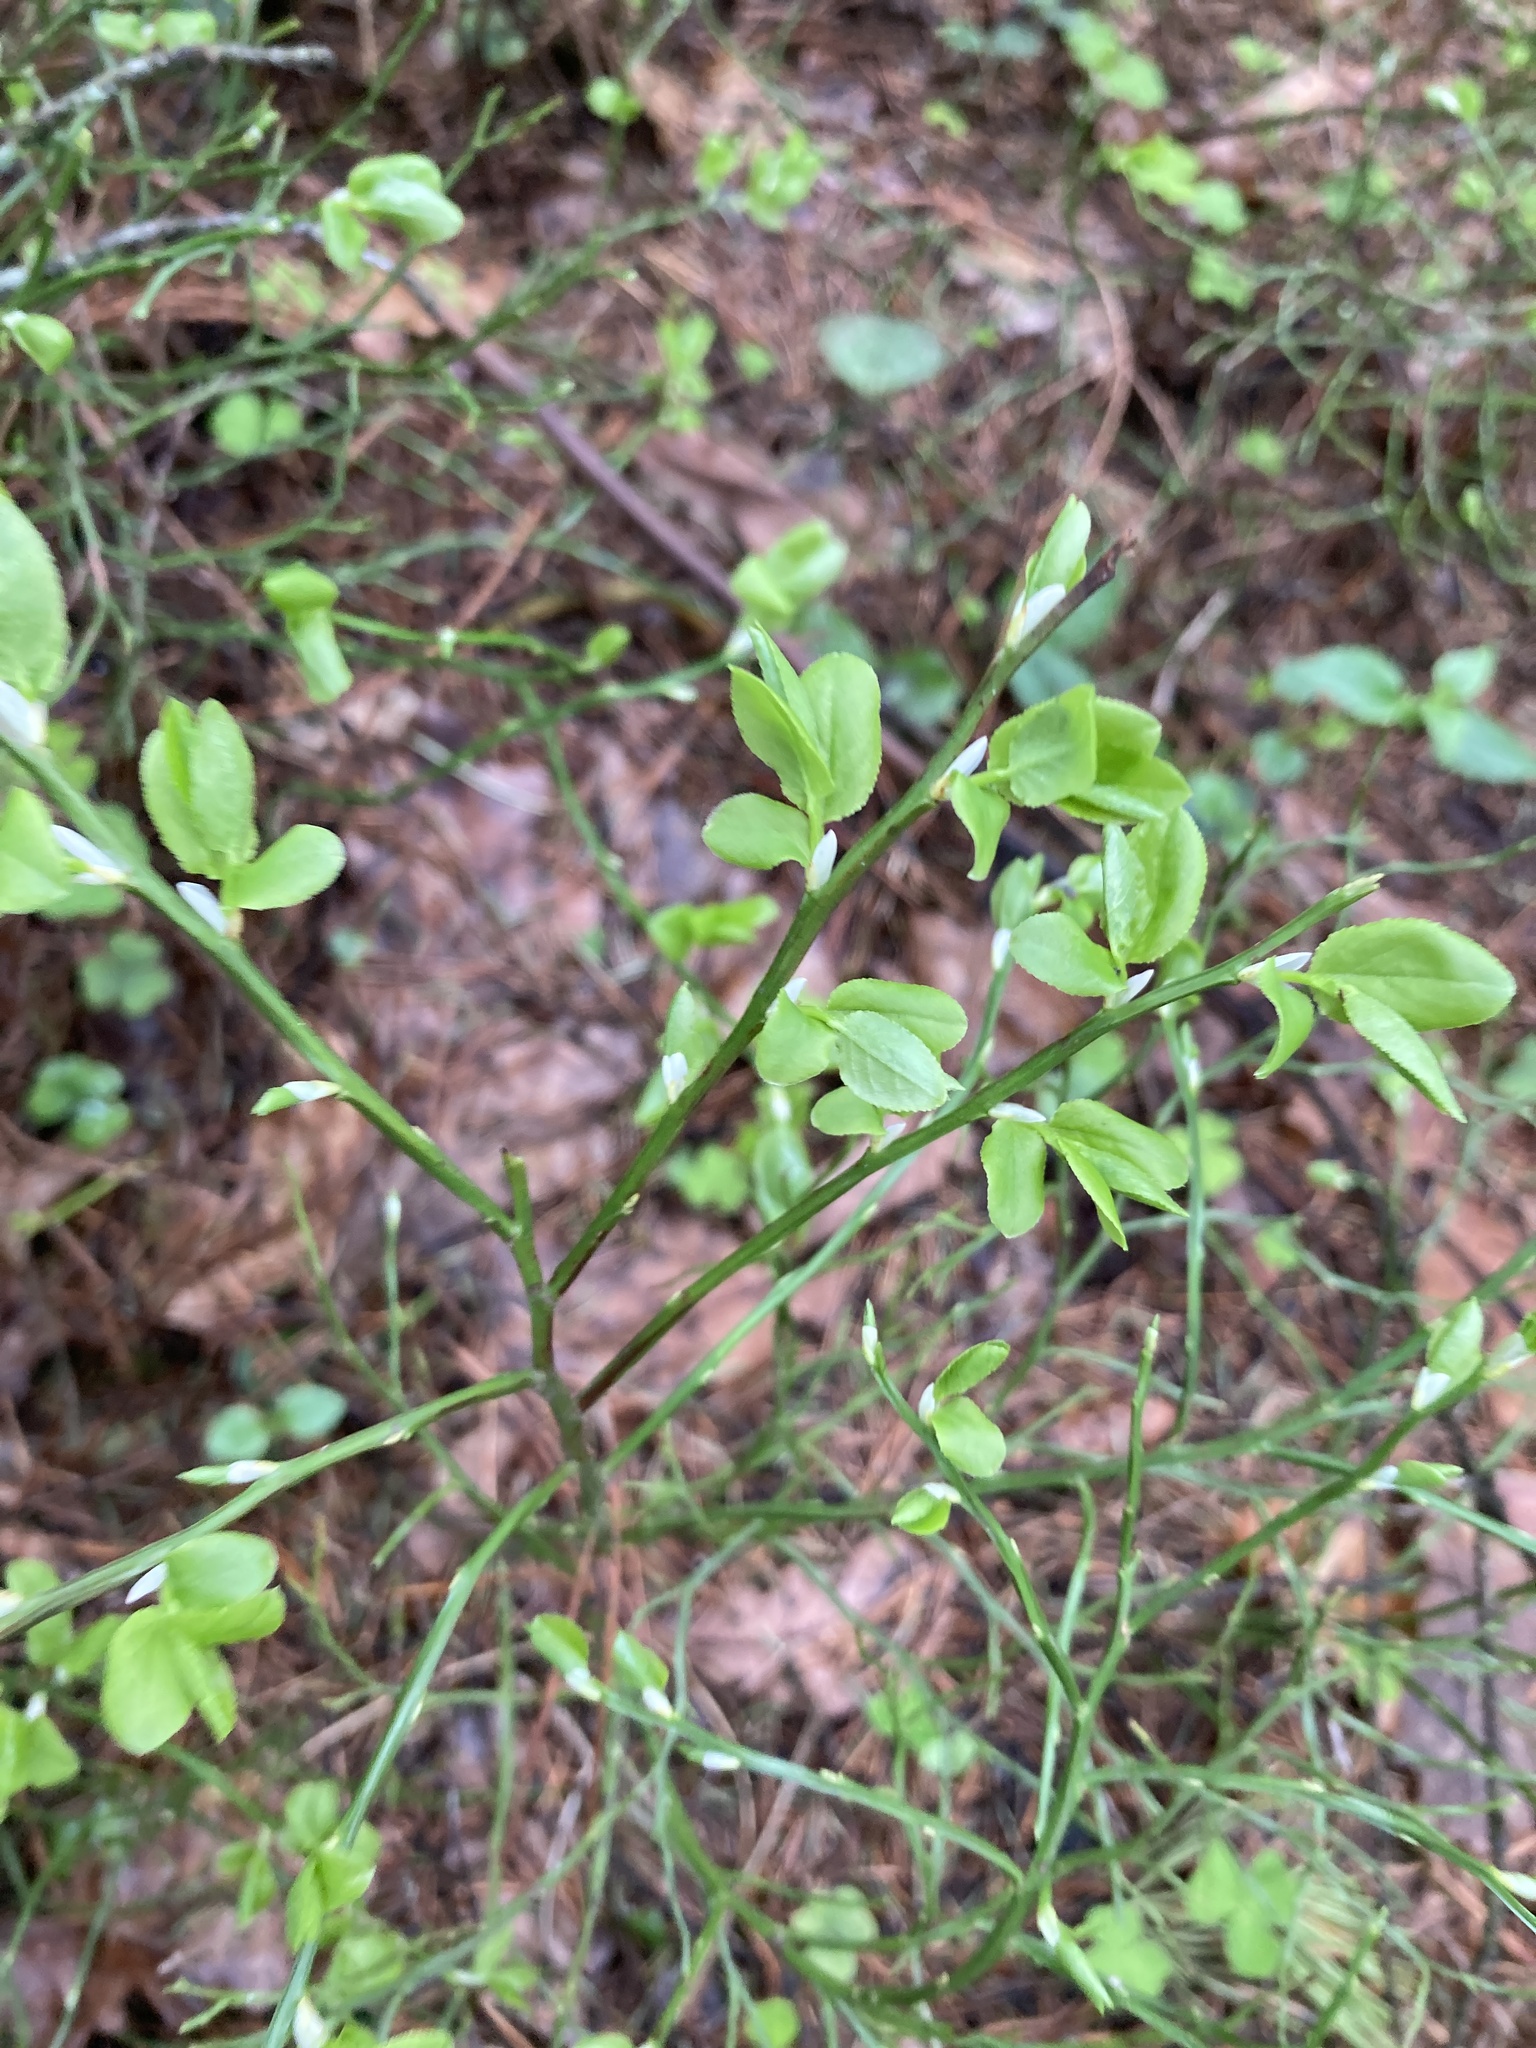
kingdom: Plantae
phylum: Tracheophyta
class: Magnoliopsida
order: Ericales
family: Ericaceae
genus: Vaccinium
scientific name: Vaccinium myrtillus
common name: Bilberry
